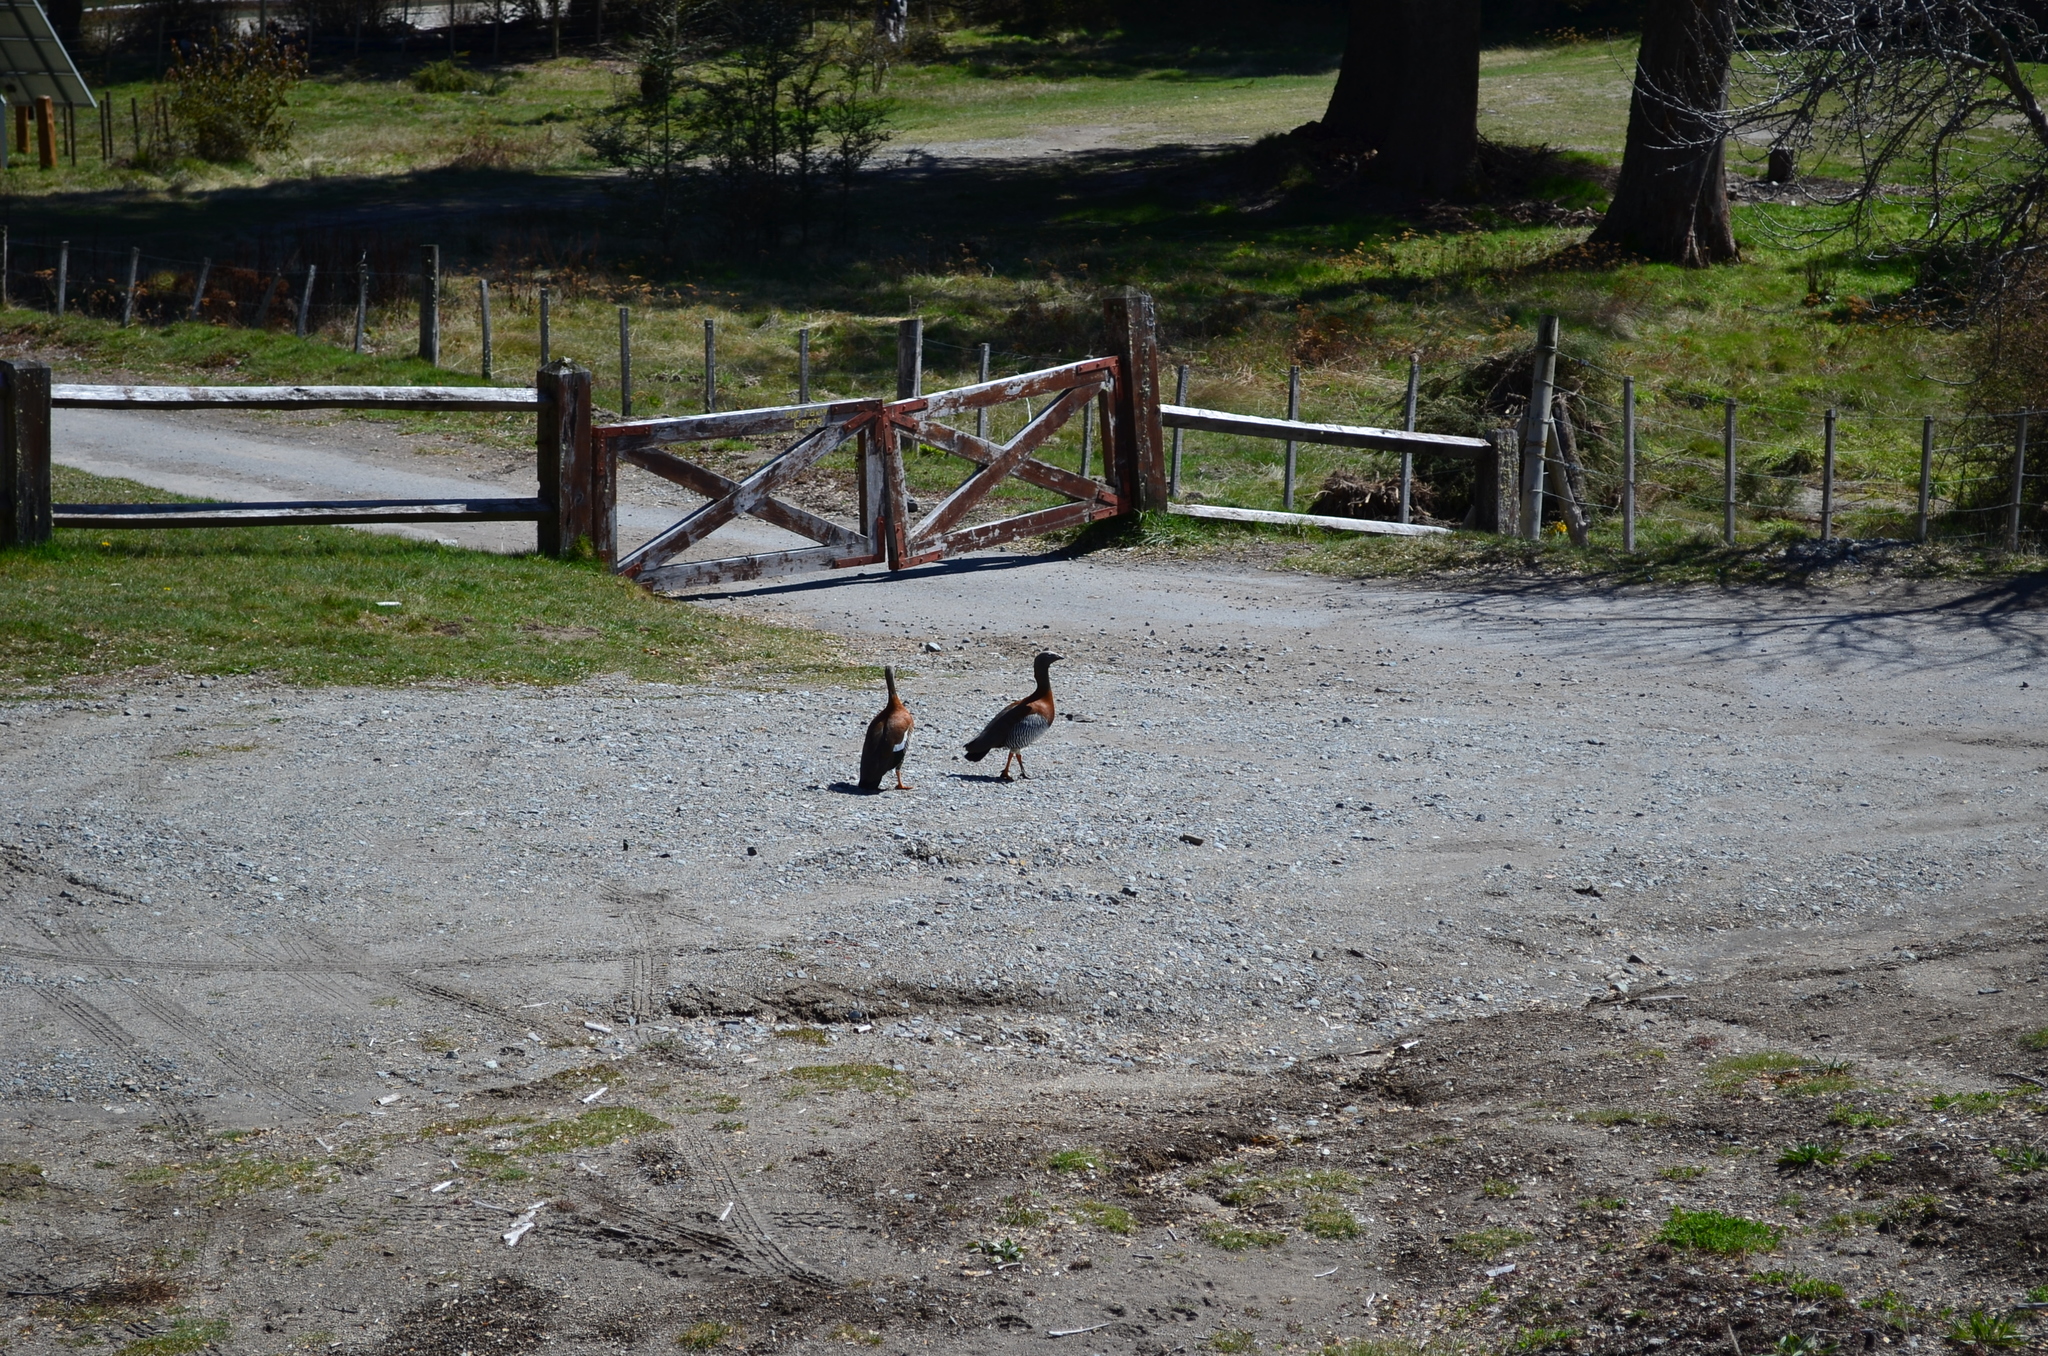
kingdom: Animalia
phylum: Chordata
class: Aves
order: Anseriformes
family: Anatidae
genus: Chloephaga
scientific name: Chloephaga poliocephala
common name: Ashy-headed goose
